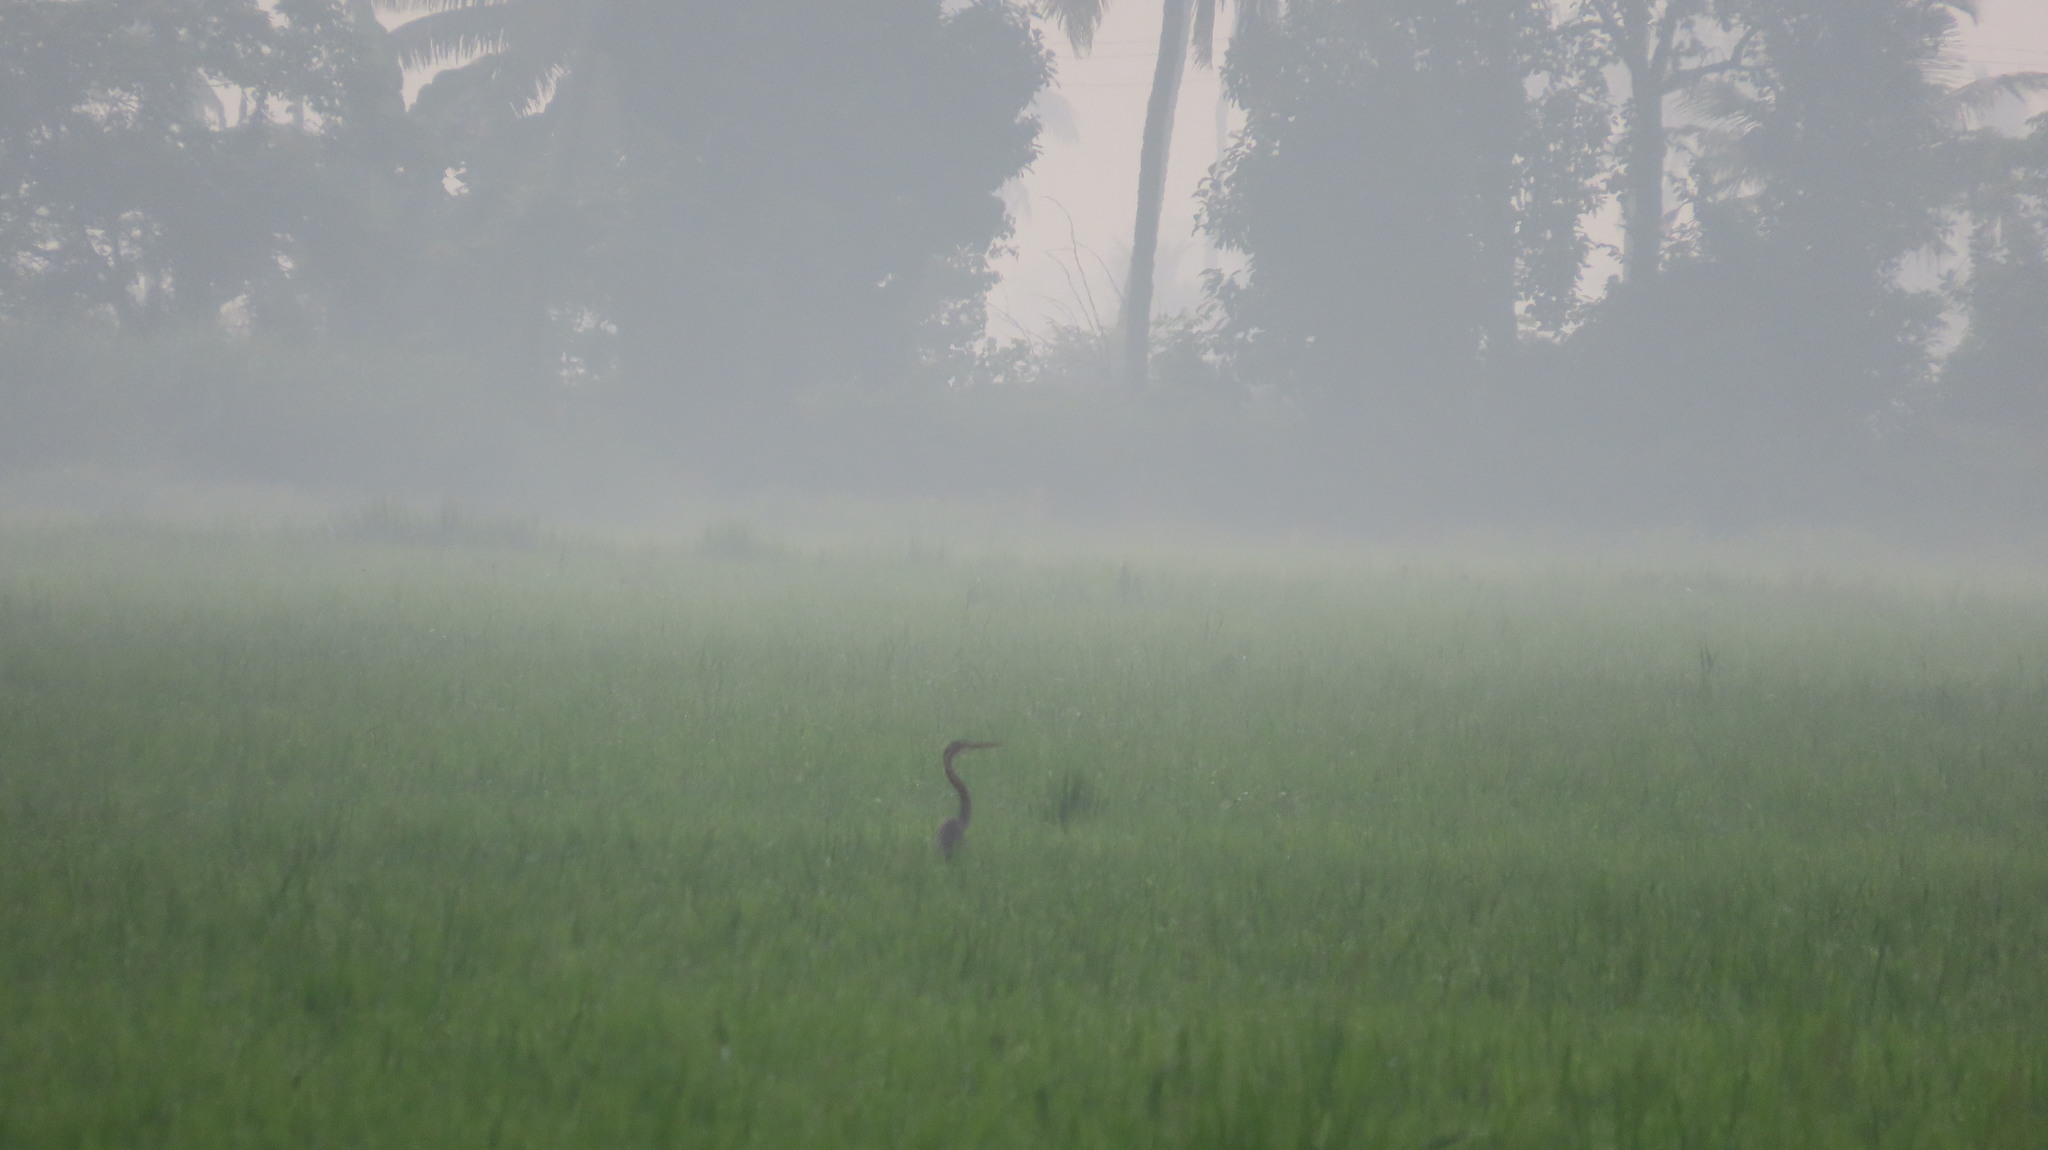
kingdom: Animalia
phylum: Chordata
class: Aves
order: Pelecaniformes
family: Ardeidae
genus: Ardea
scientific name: Ardea purpurea
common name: Purple heron
